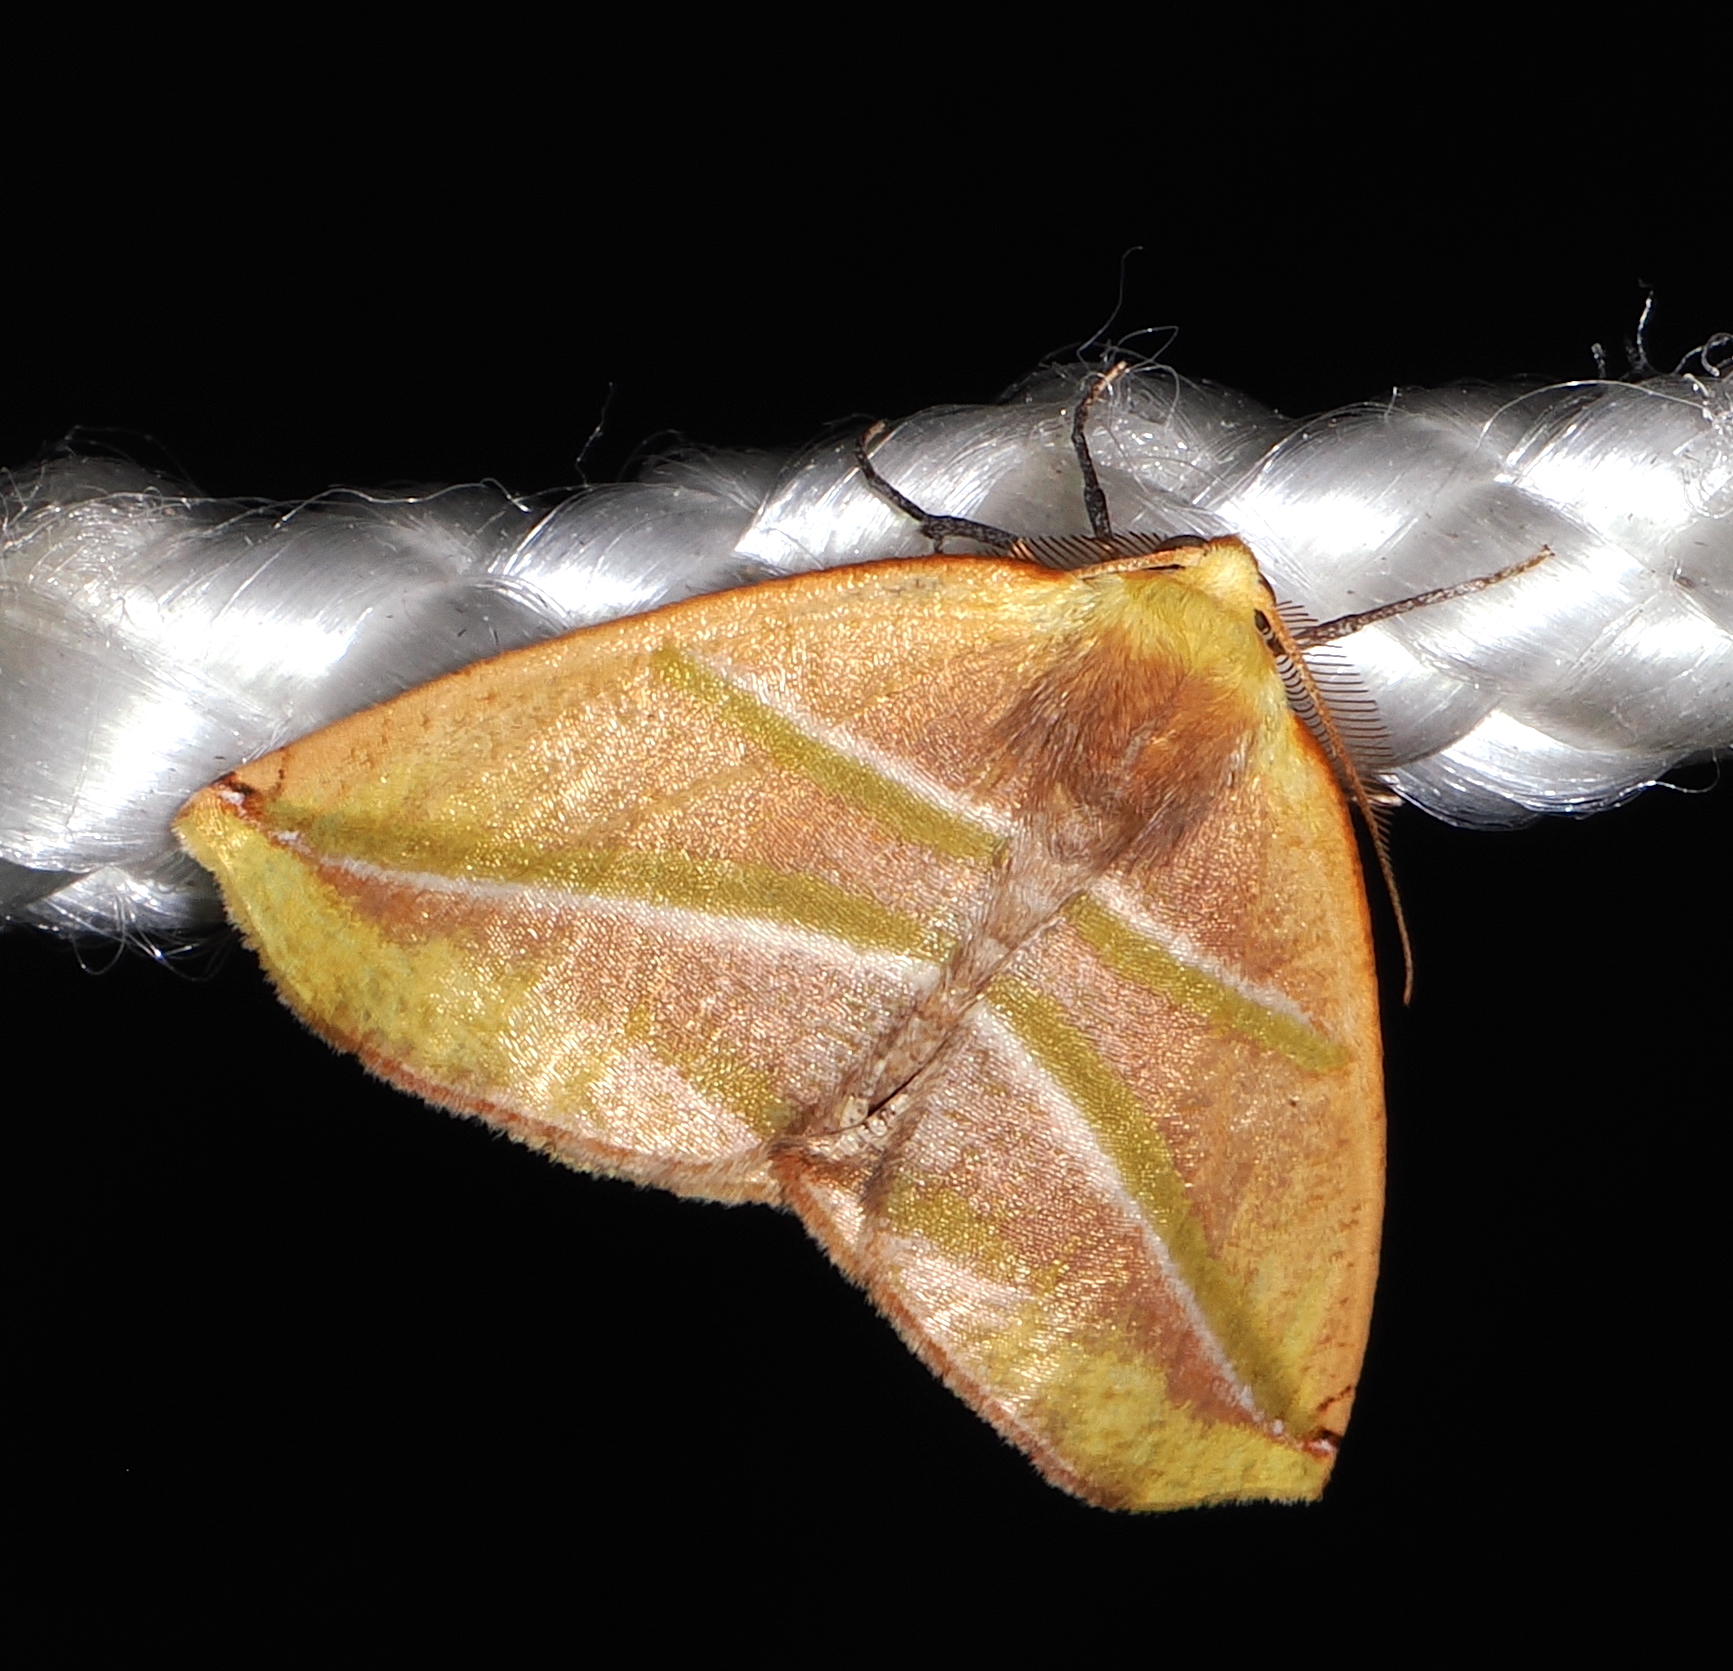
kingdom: Animalia
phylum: Arthropoda
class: Insecta
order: Lepidoptera
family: Geometridae
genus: Sicya
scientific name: Sicya directaria
